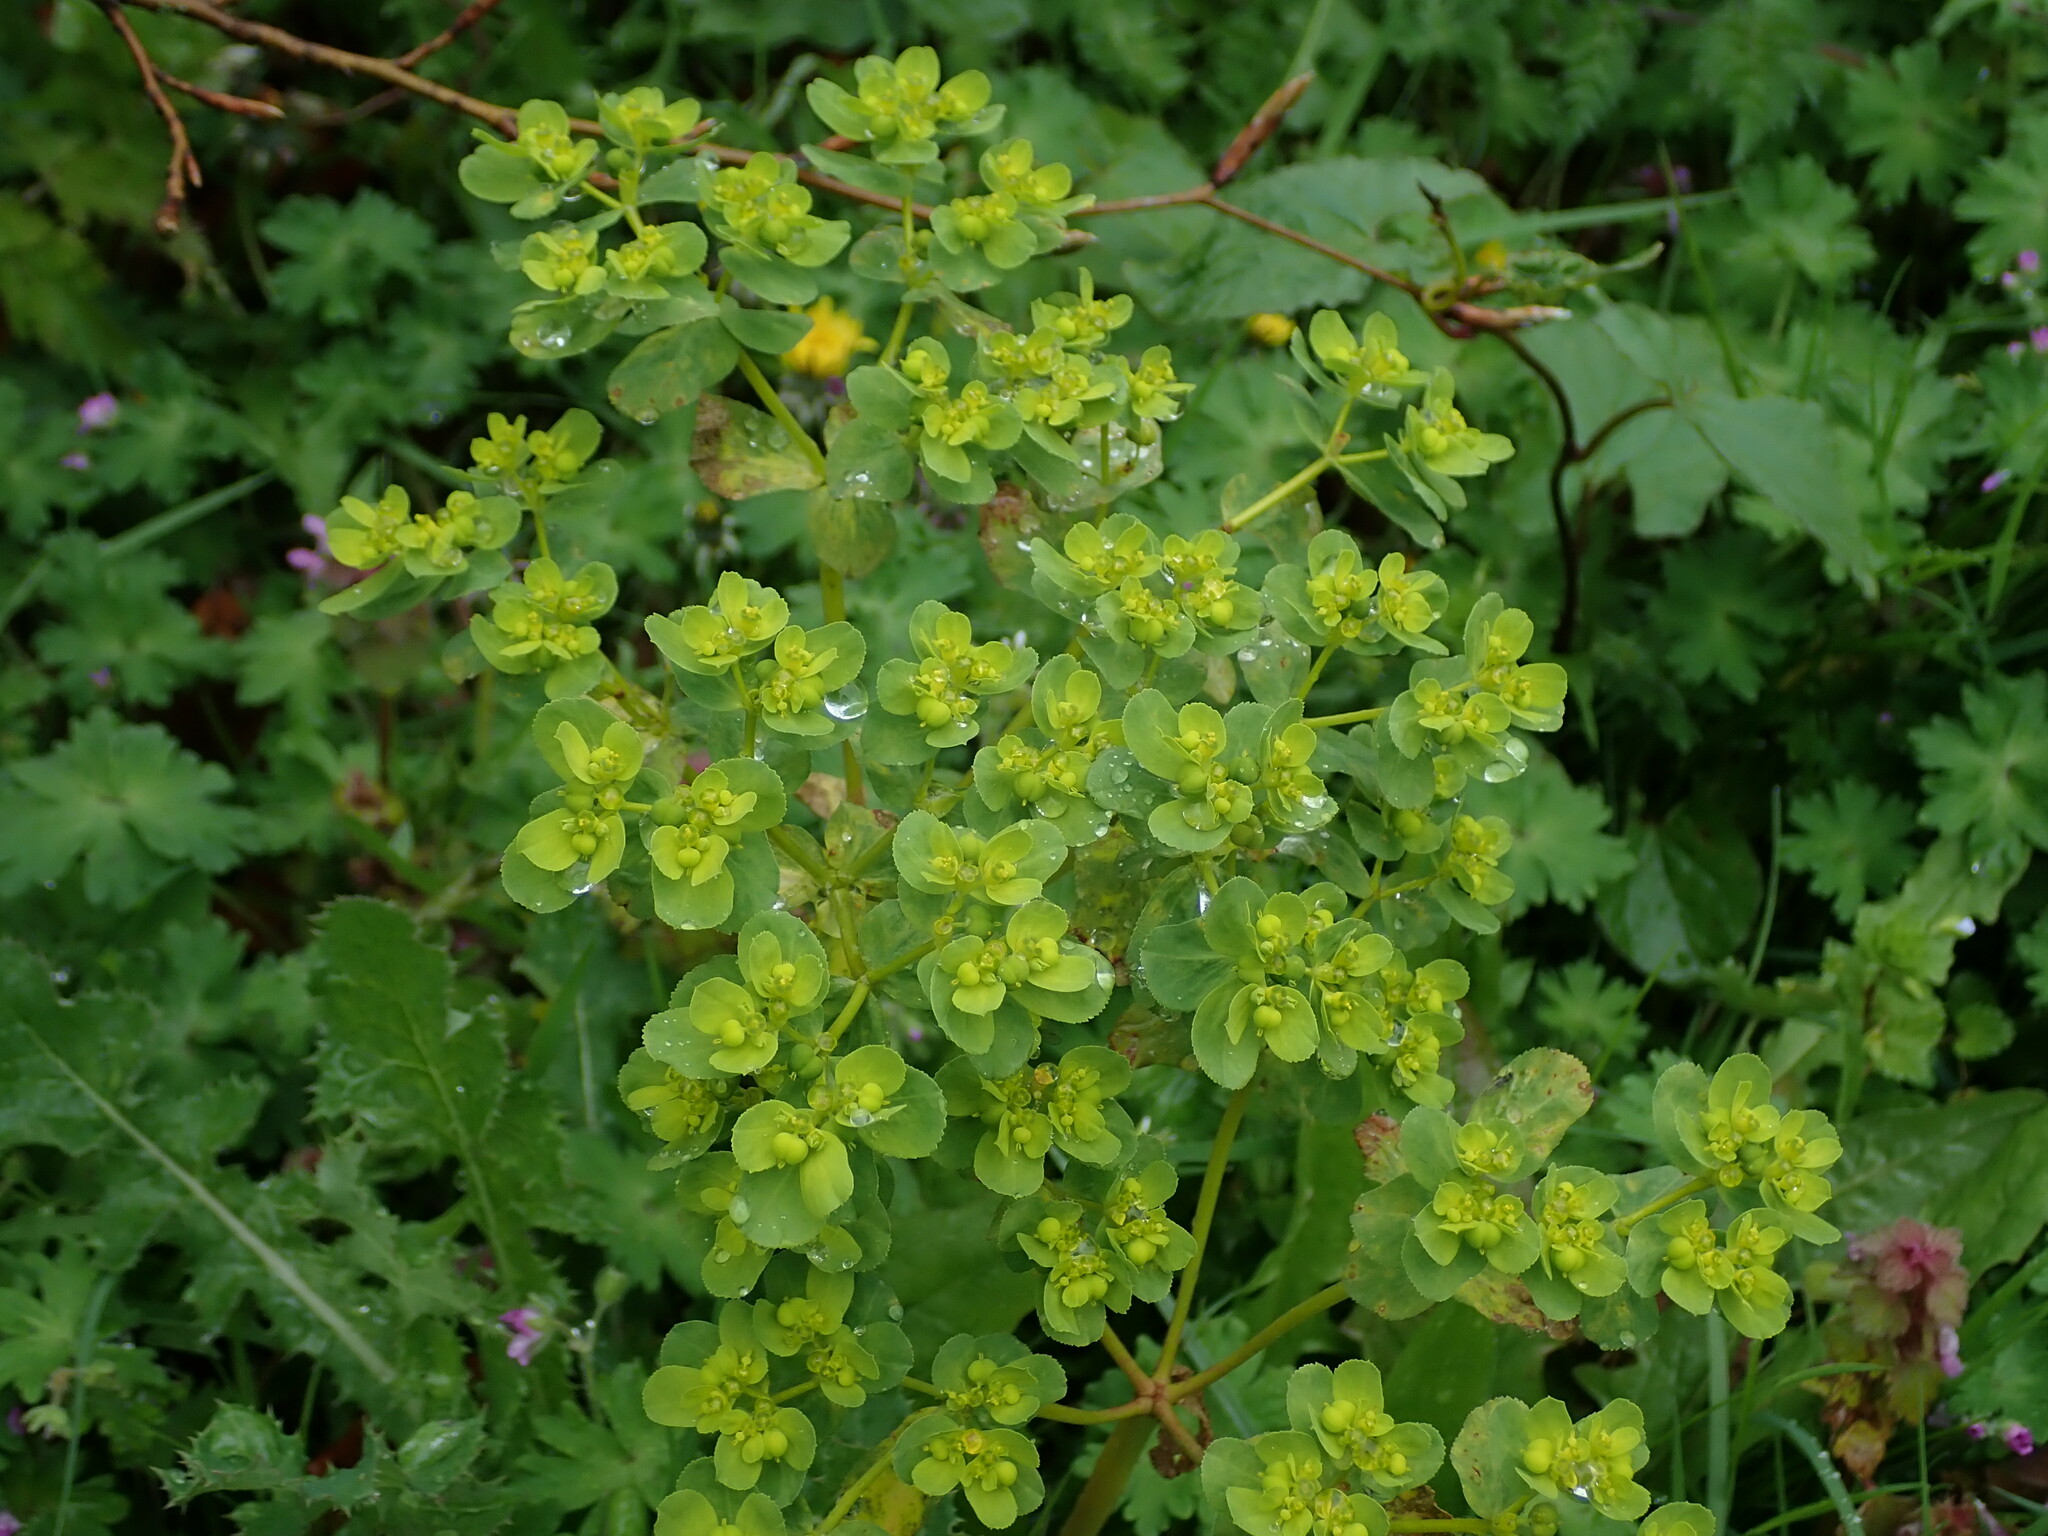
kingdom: Plantae
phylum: Tracheophyta
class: Magnoliopsida
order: Malpighiales
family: Euphorbiaceae
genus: Euphorbia
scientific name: Euphorbia helioscopia
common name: Sun spurge
